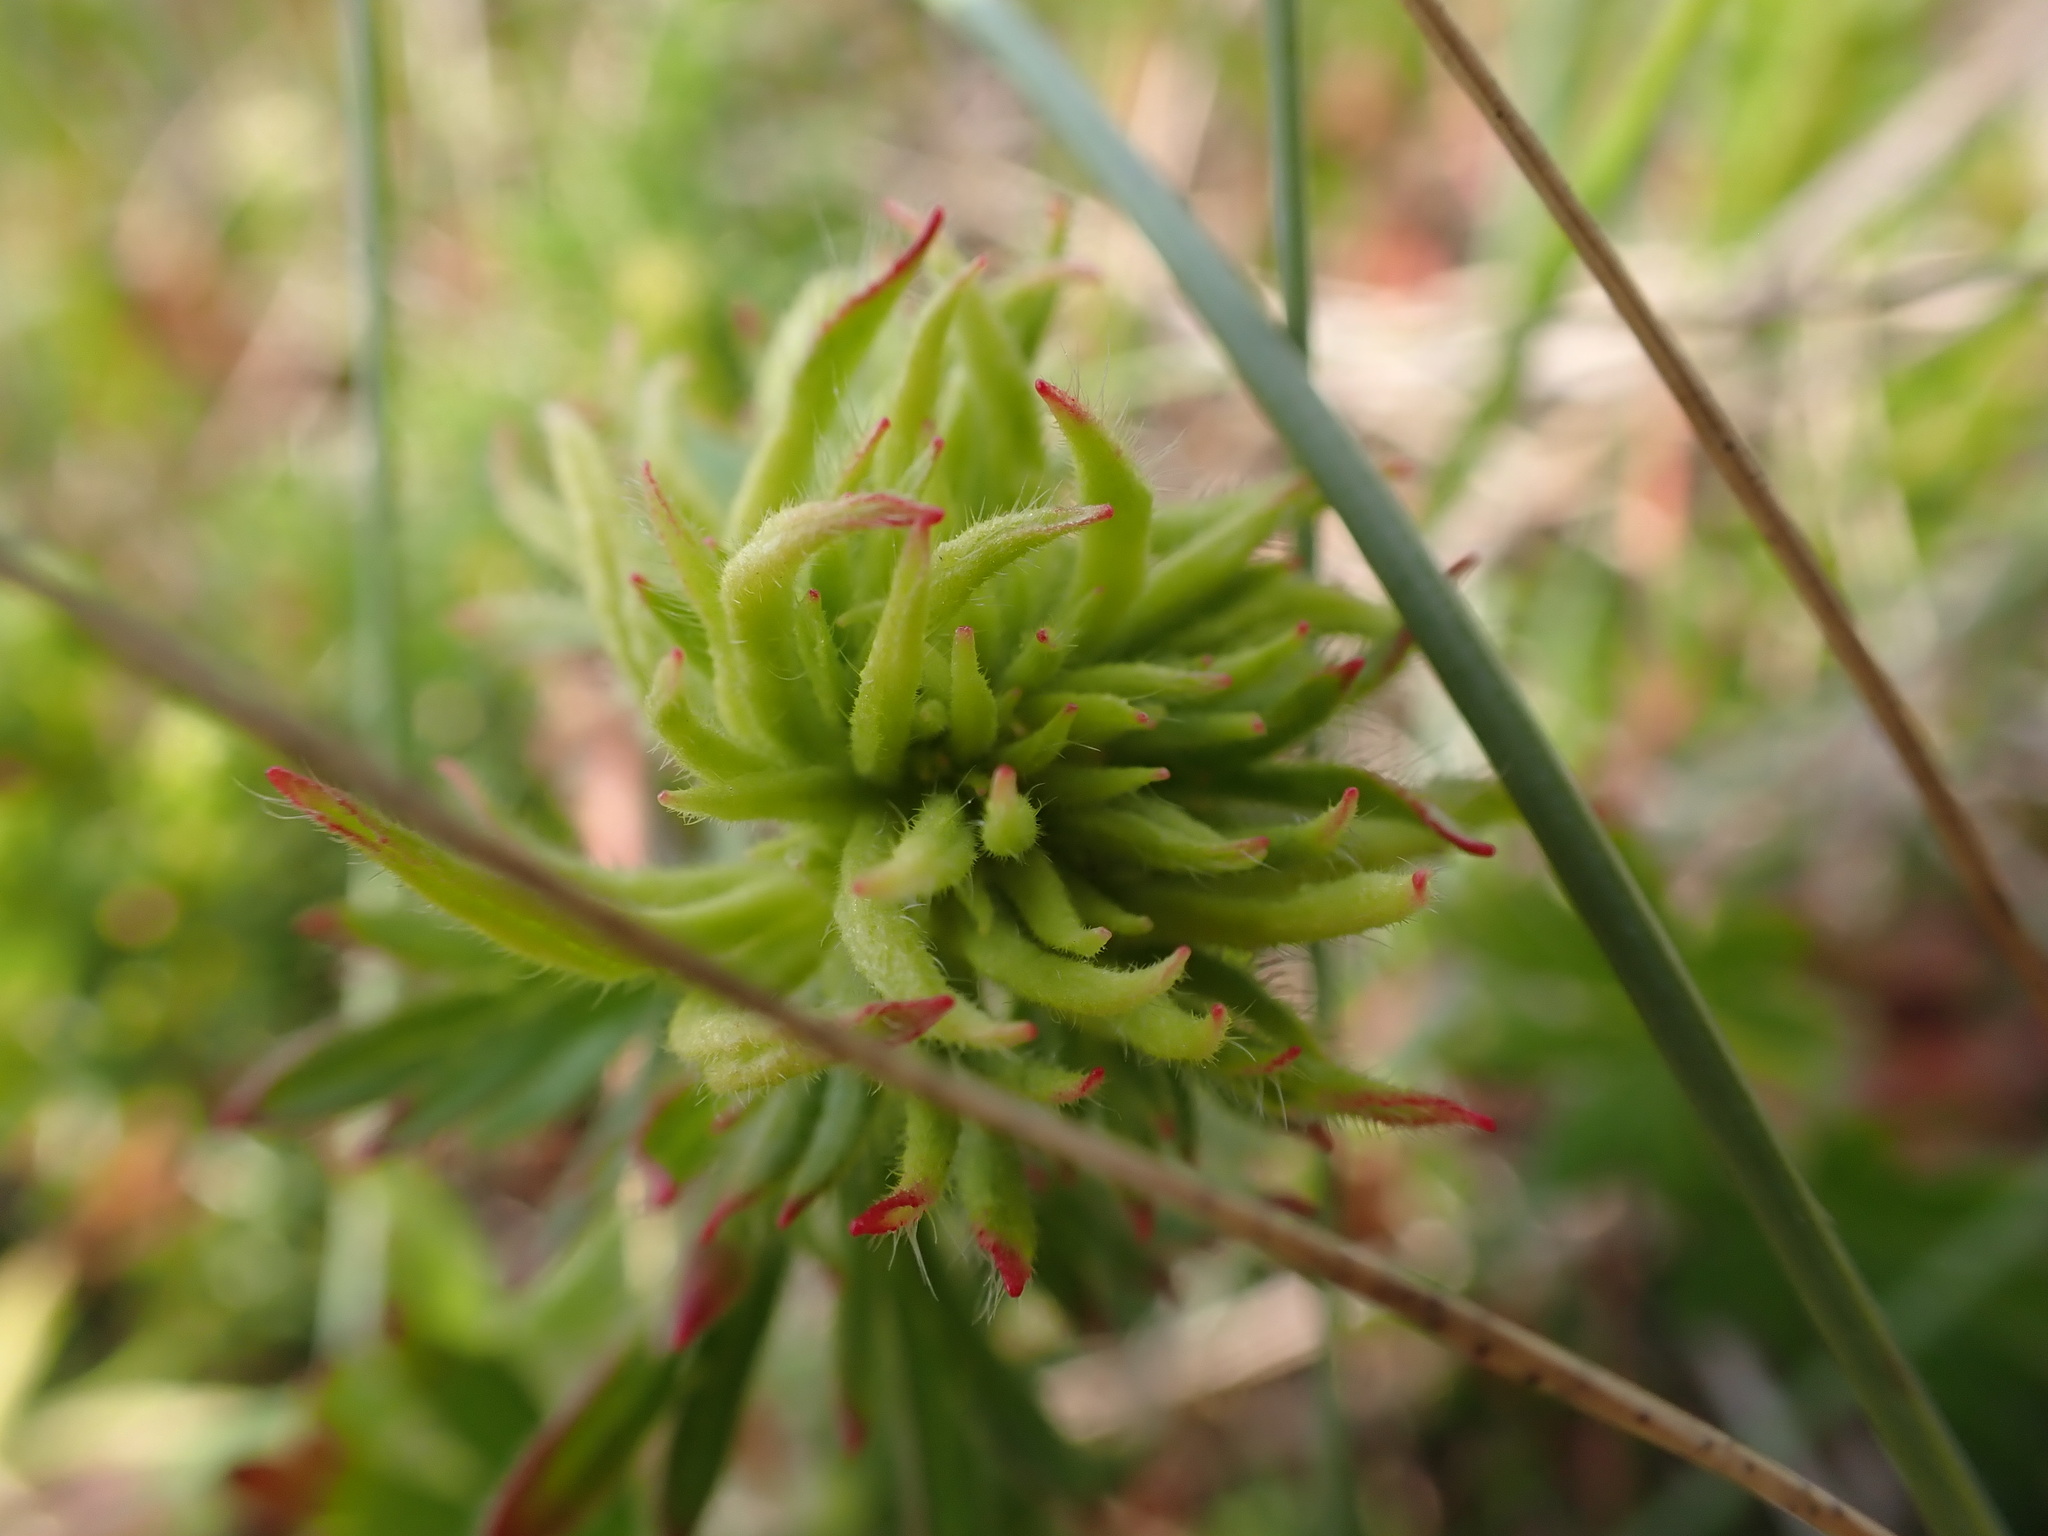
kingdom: Animalia
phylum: Arthropoda
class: Arachnida
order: Trombidiformes
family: Eriophyidae
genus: Aceria
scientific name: Aceria geranii
